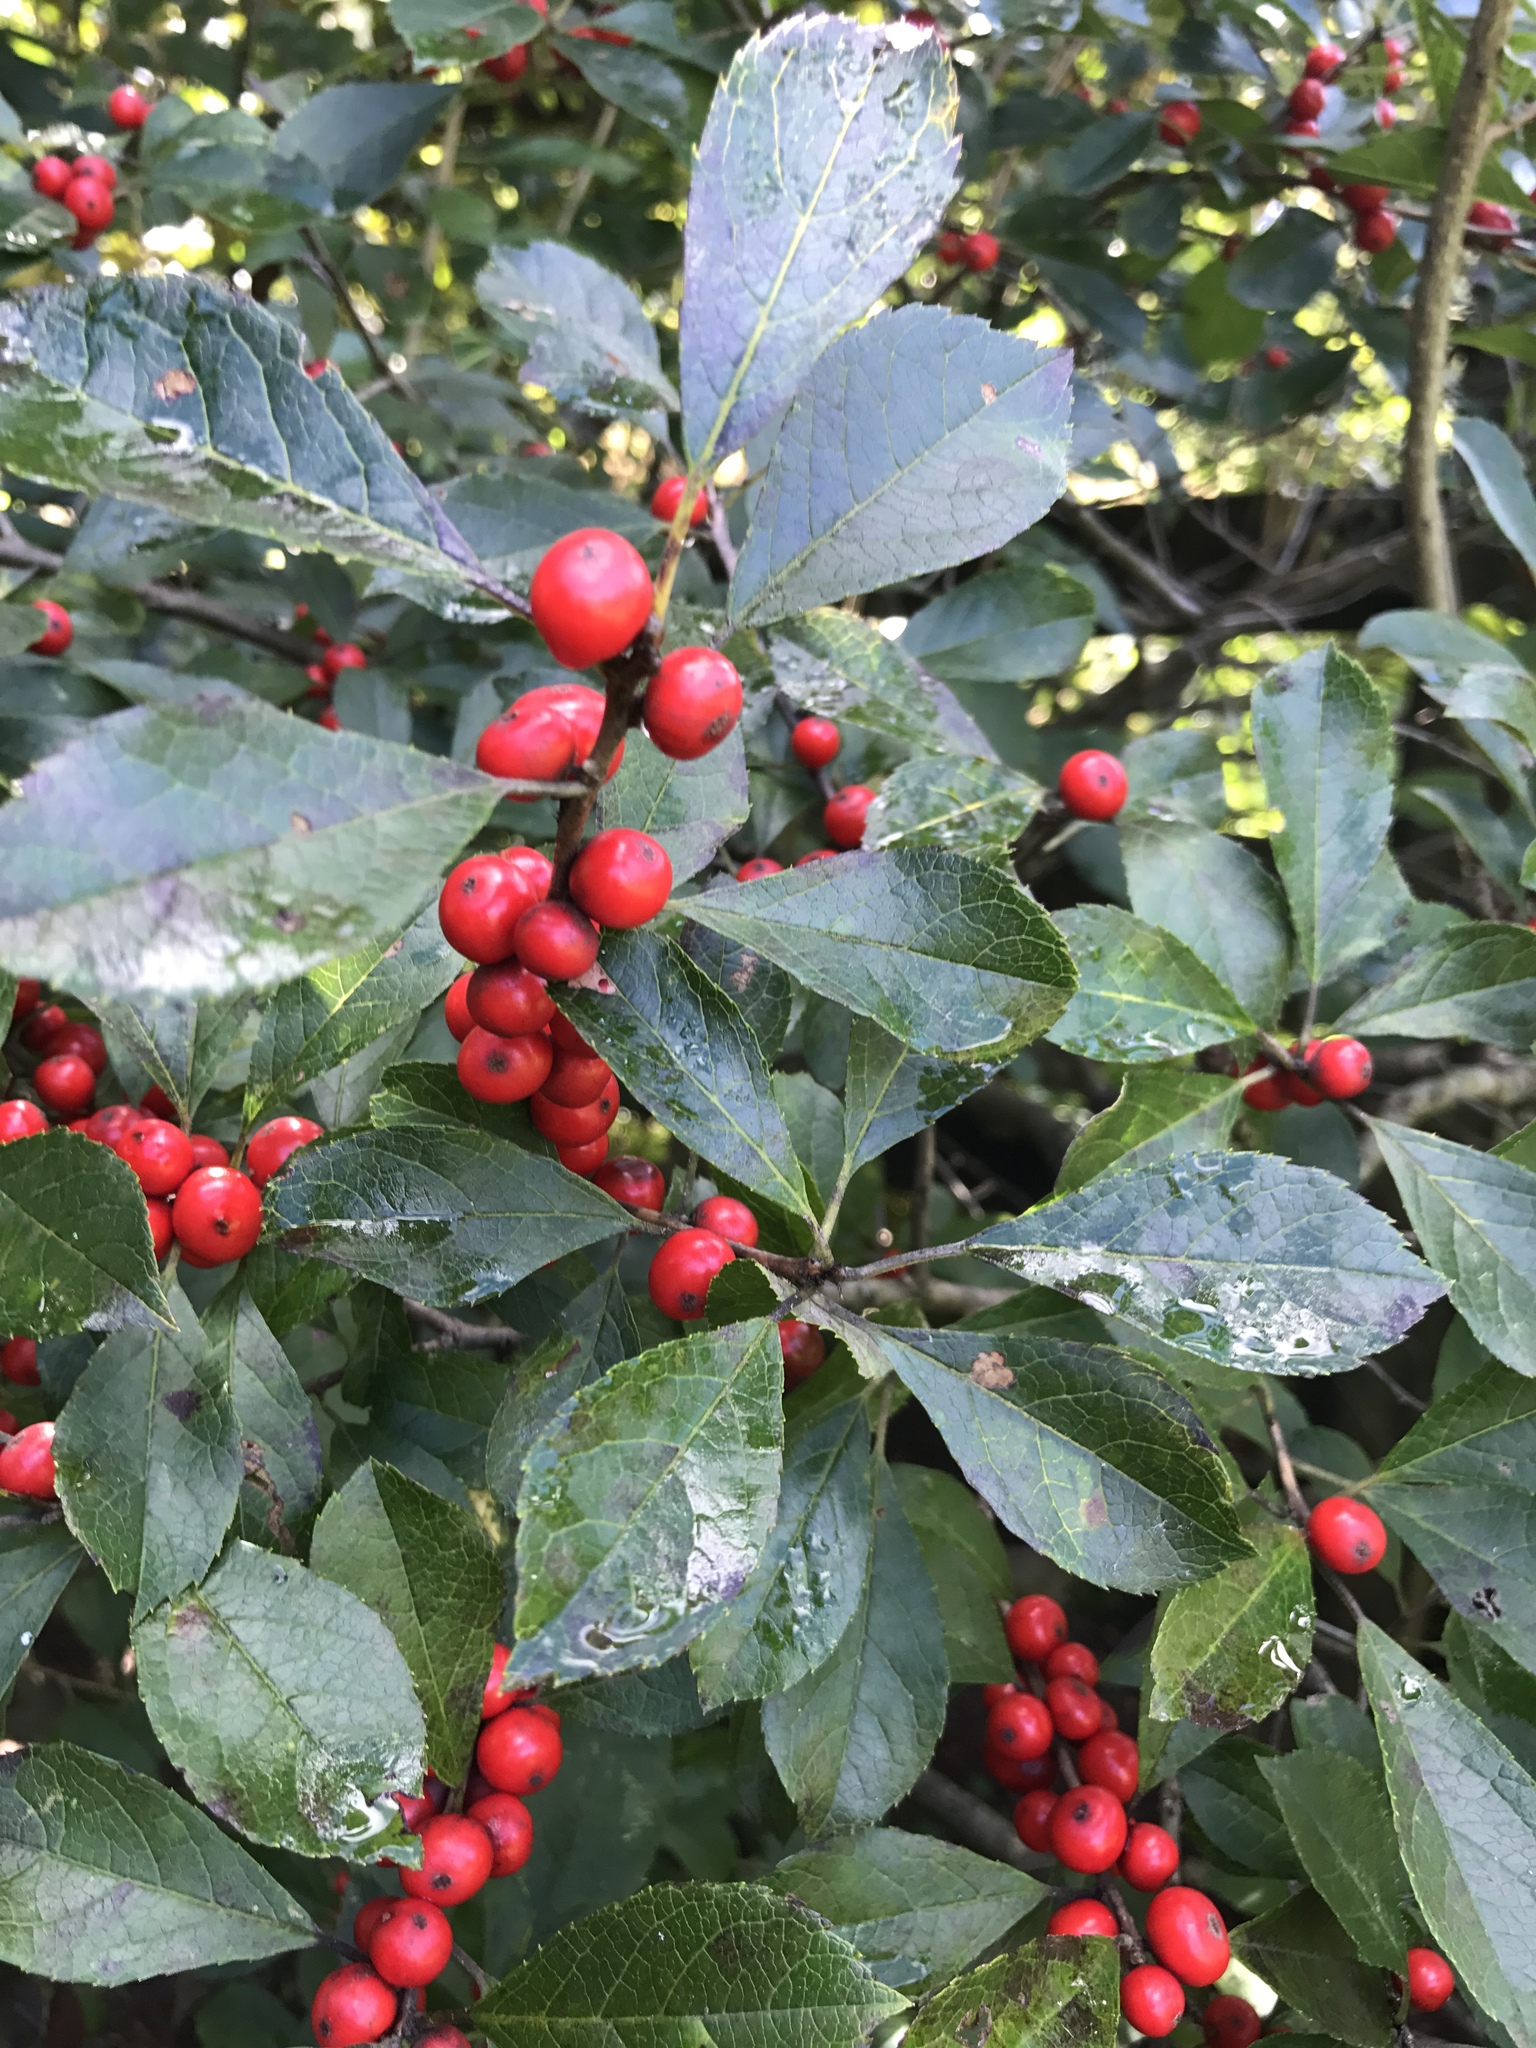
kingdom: Plantae
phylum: Tracheophyta
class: Magnoliopsida
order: Aquifoliales
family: Aquifoliaceae
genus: Ilex
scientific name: Ilex verticillata
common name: Virginia winterberry
